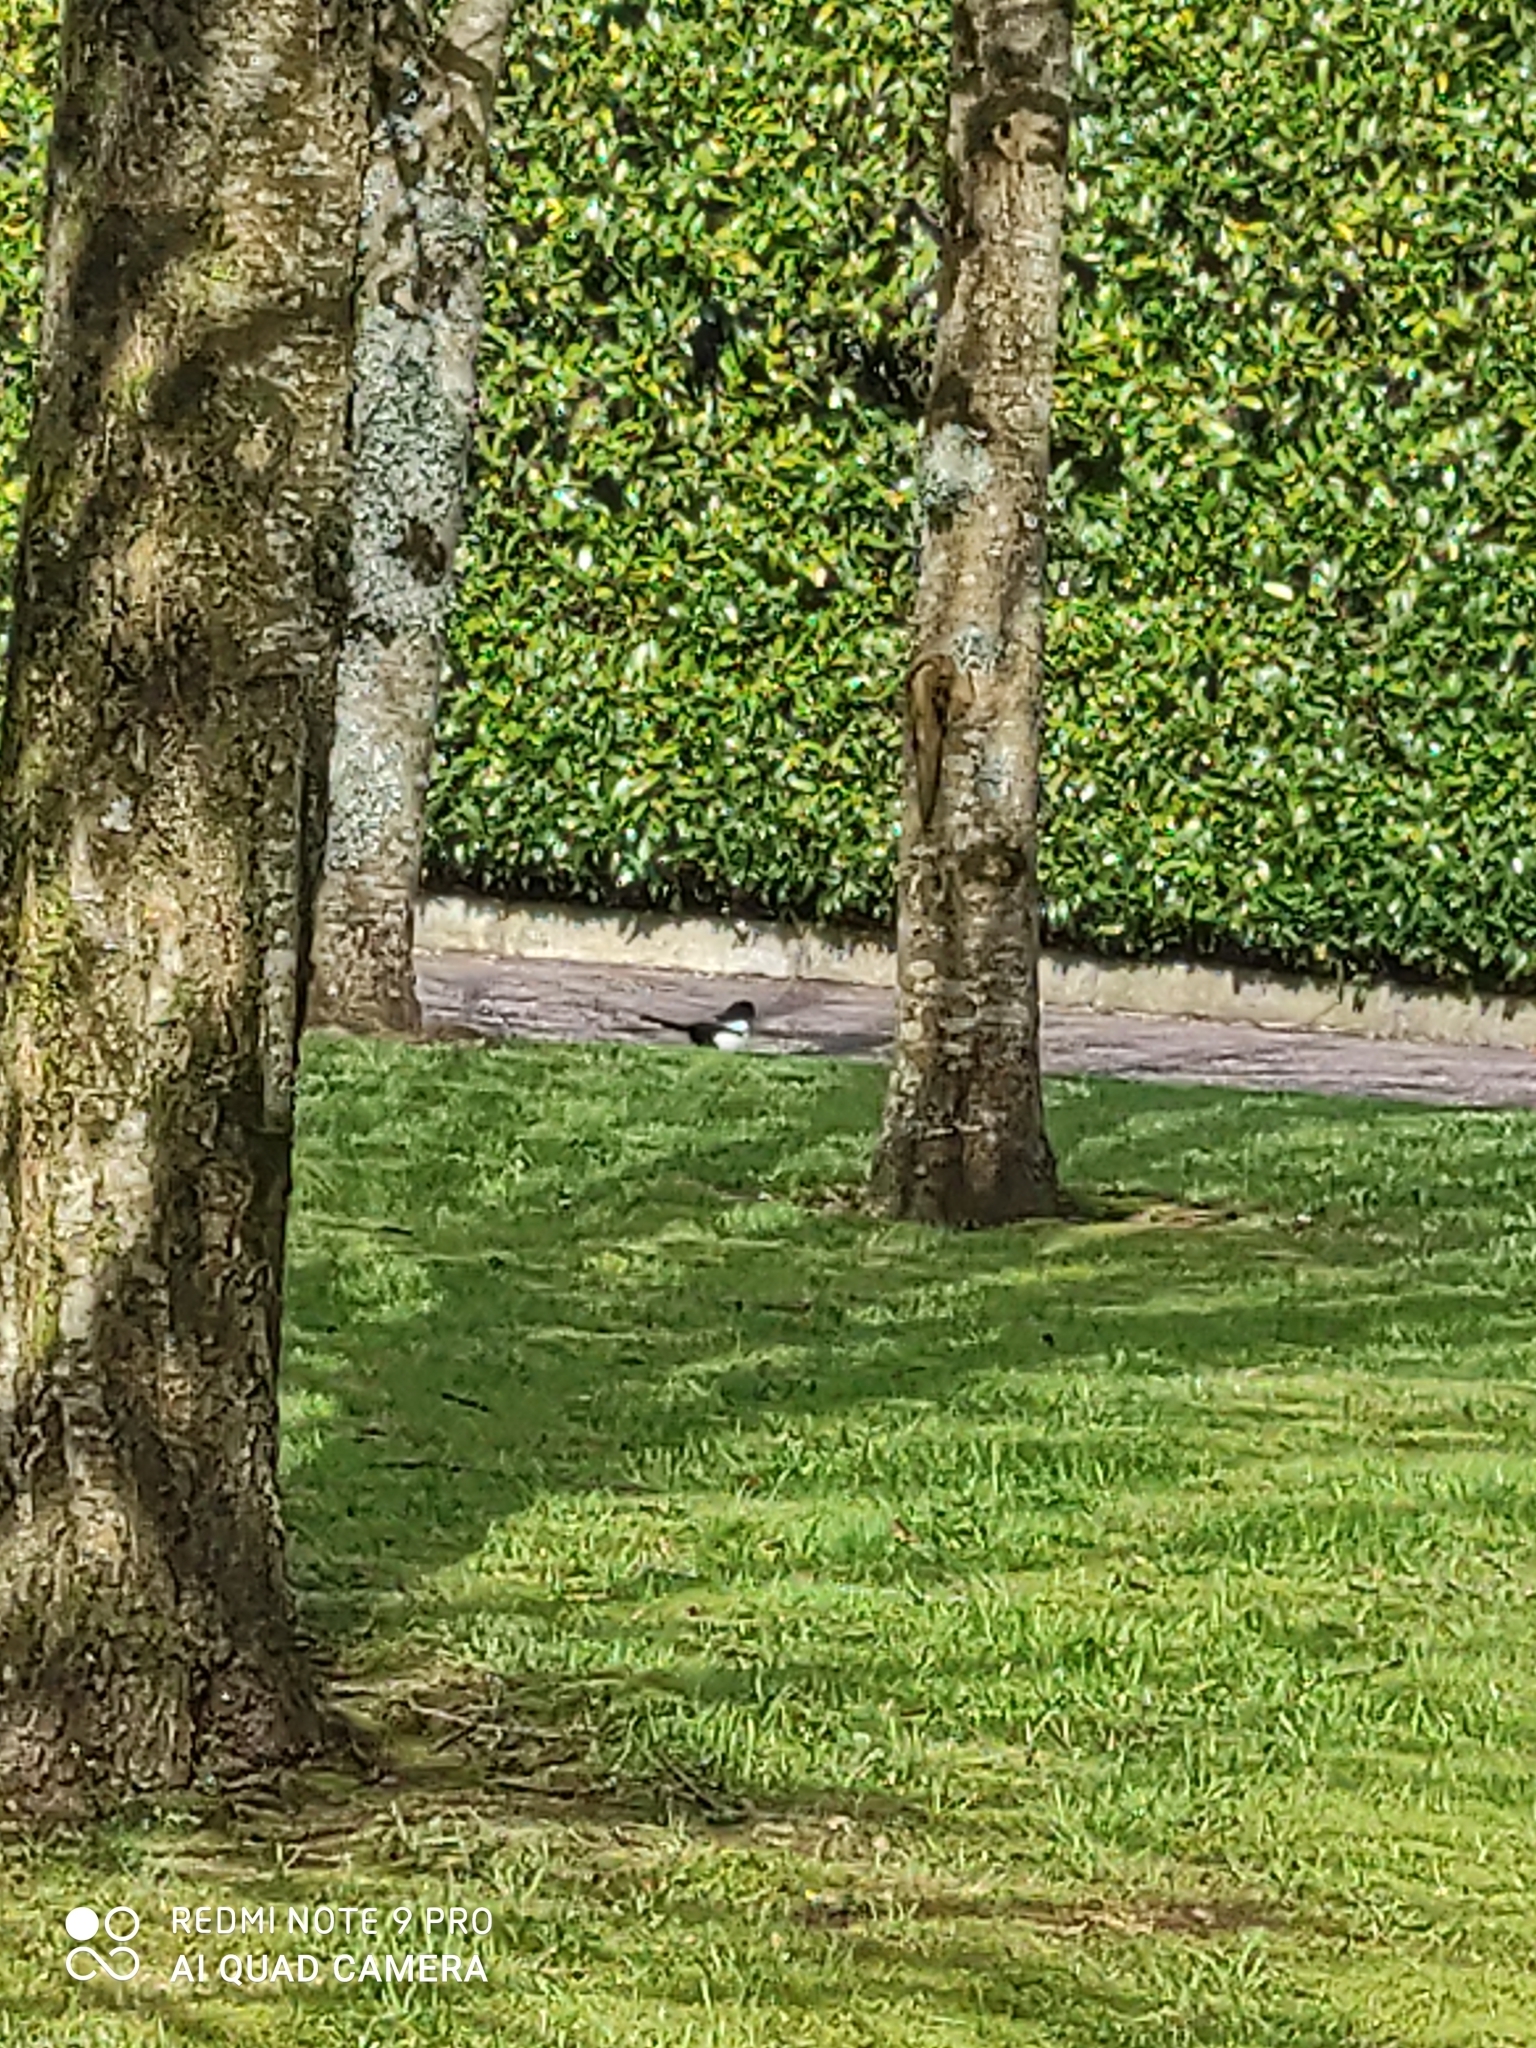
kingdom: Animalia
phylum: Chordata
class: Aves
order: Passeriformes
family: Corvidae
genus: Pica
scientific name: Pica pica
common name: Eurasian magpie
